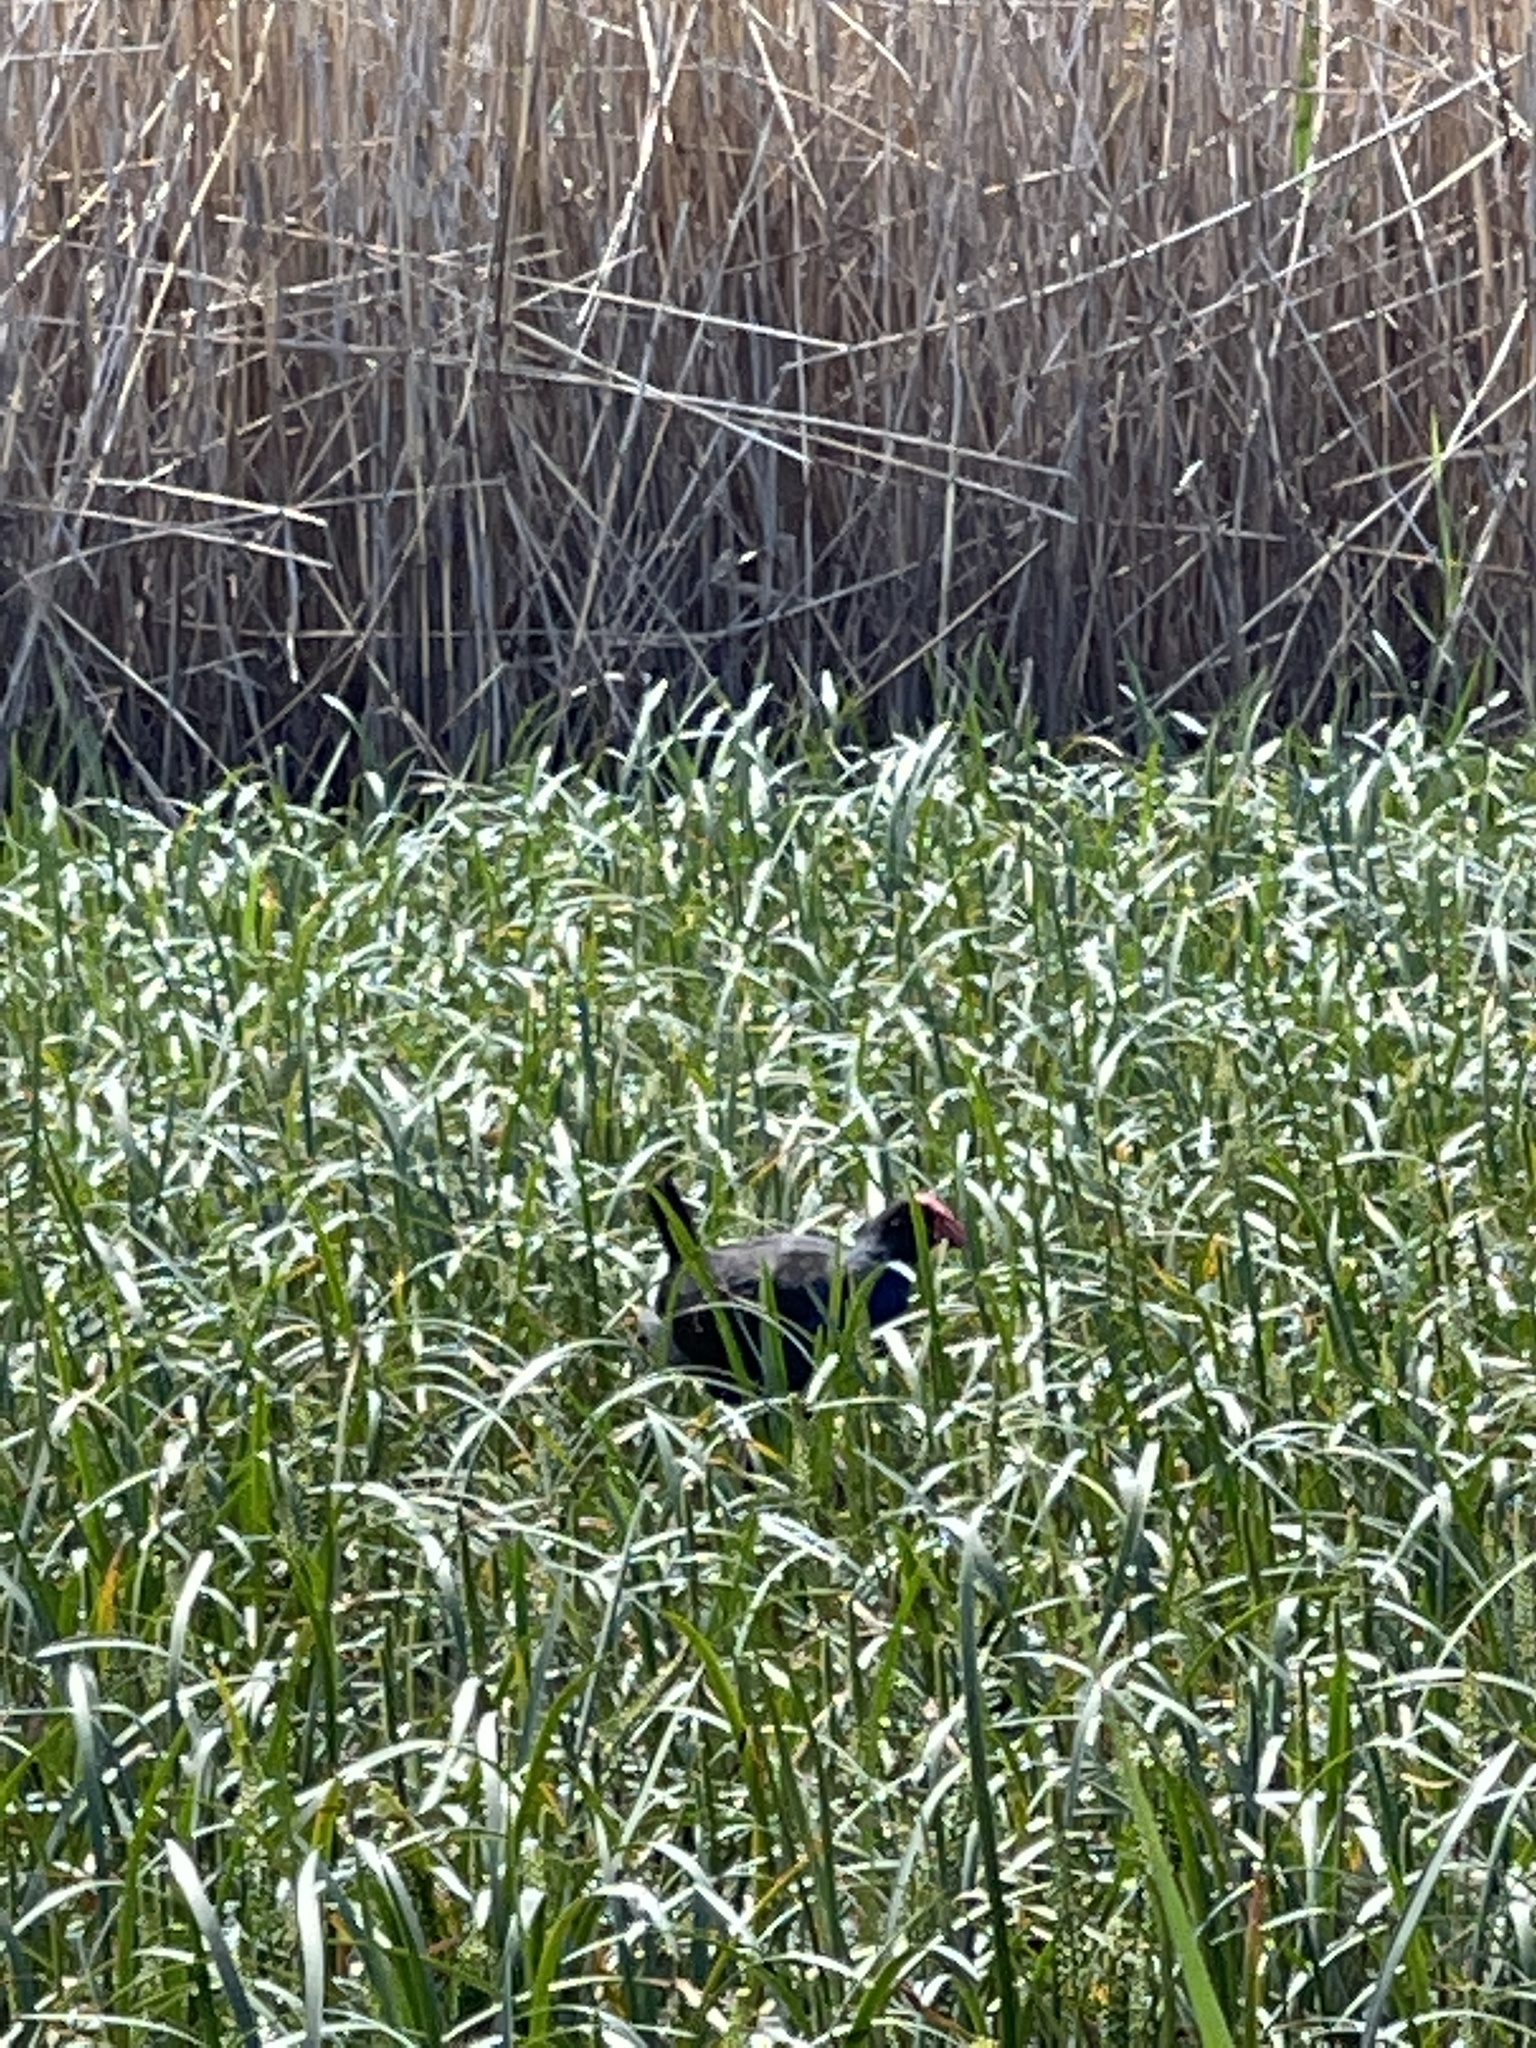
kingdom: Animalia
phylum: Chordata
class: Aves
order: Gruiformes
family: Rallidae
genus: Porphyrio
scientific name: Porphyrio melanotus
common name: Australasian swamphen
